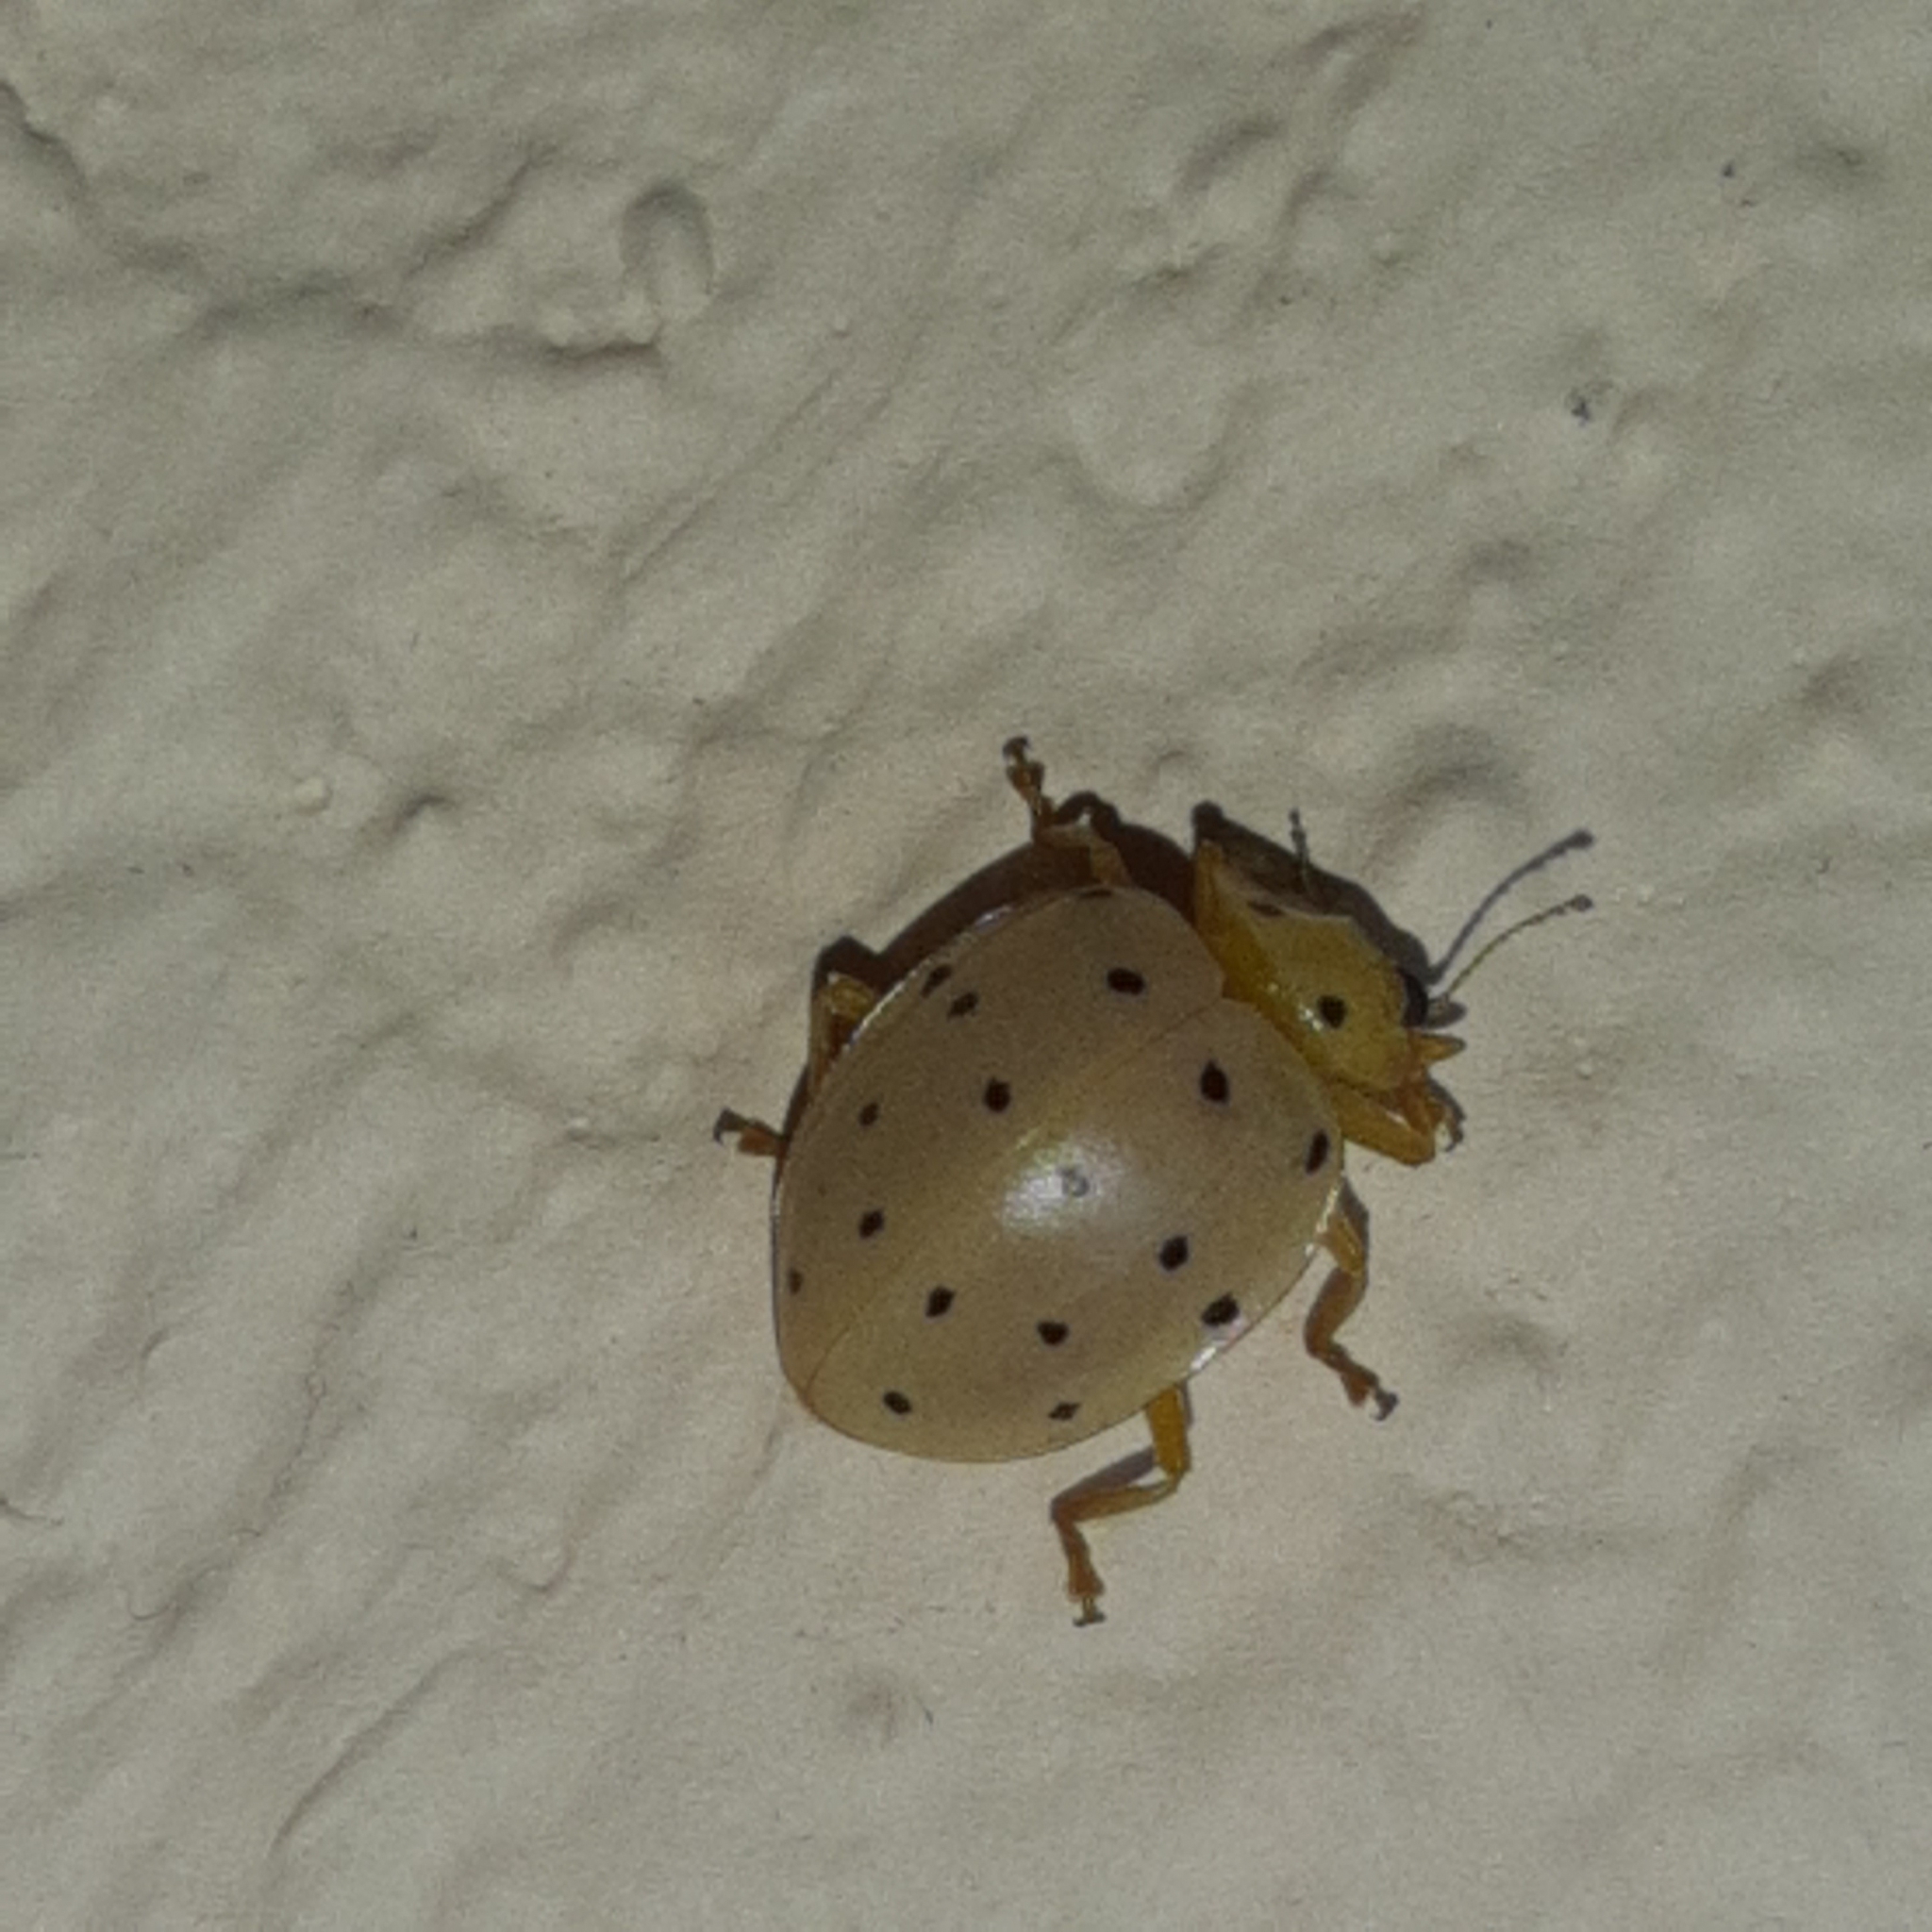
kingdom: Animalia
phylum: Arthropoda
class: Insecta
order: Coleoptera
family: Coccinellidae
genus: Neohalyzia
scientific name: Neohalyzia
